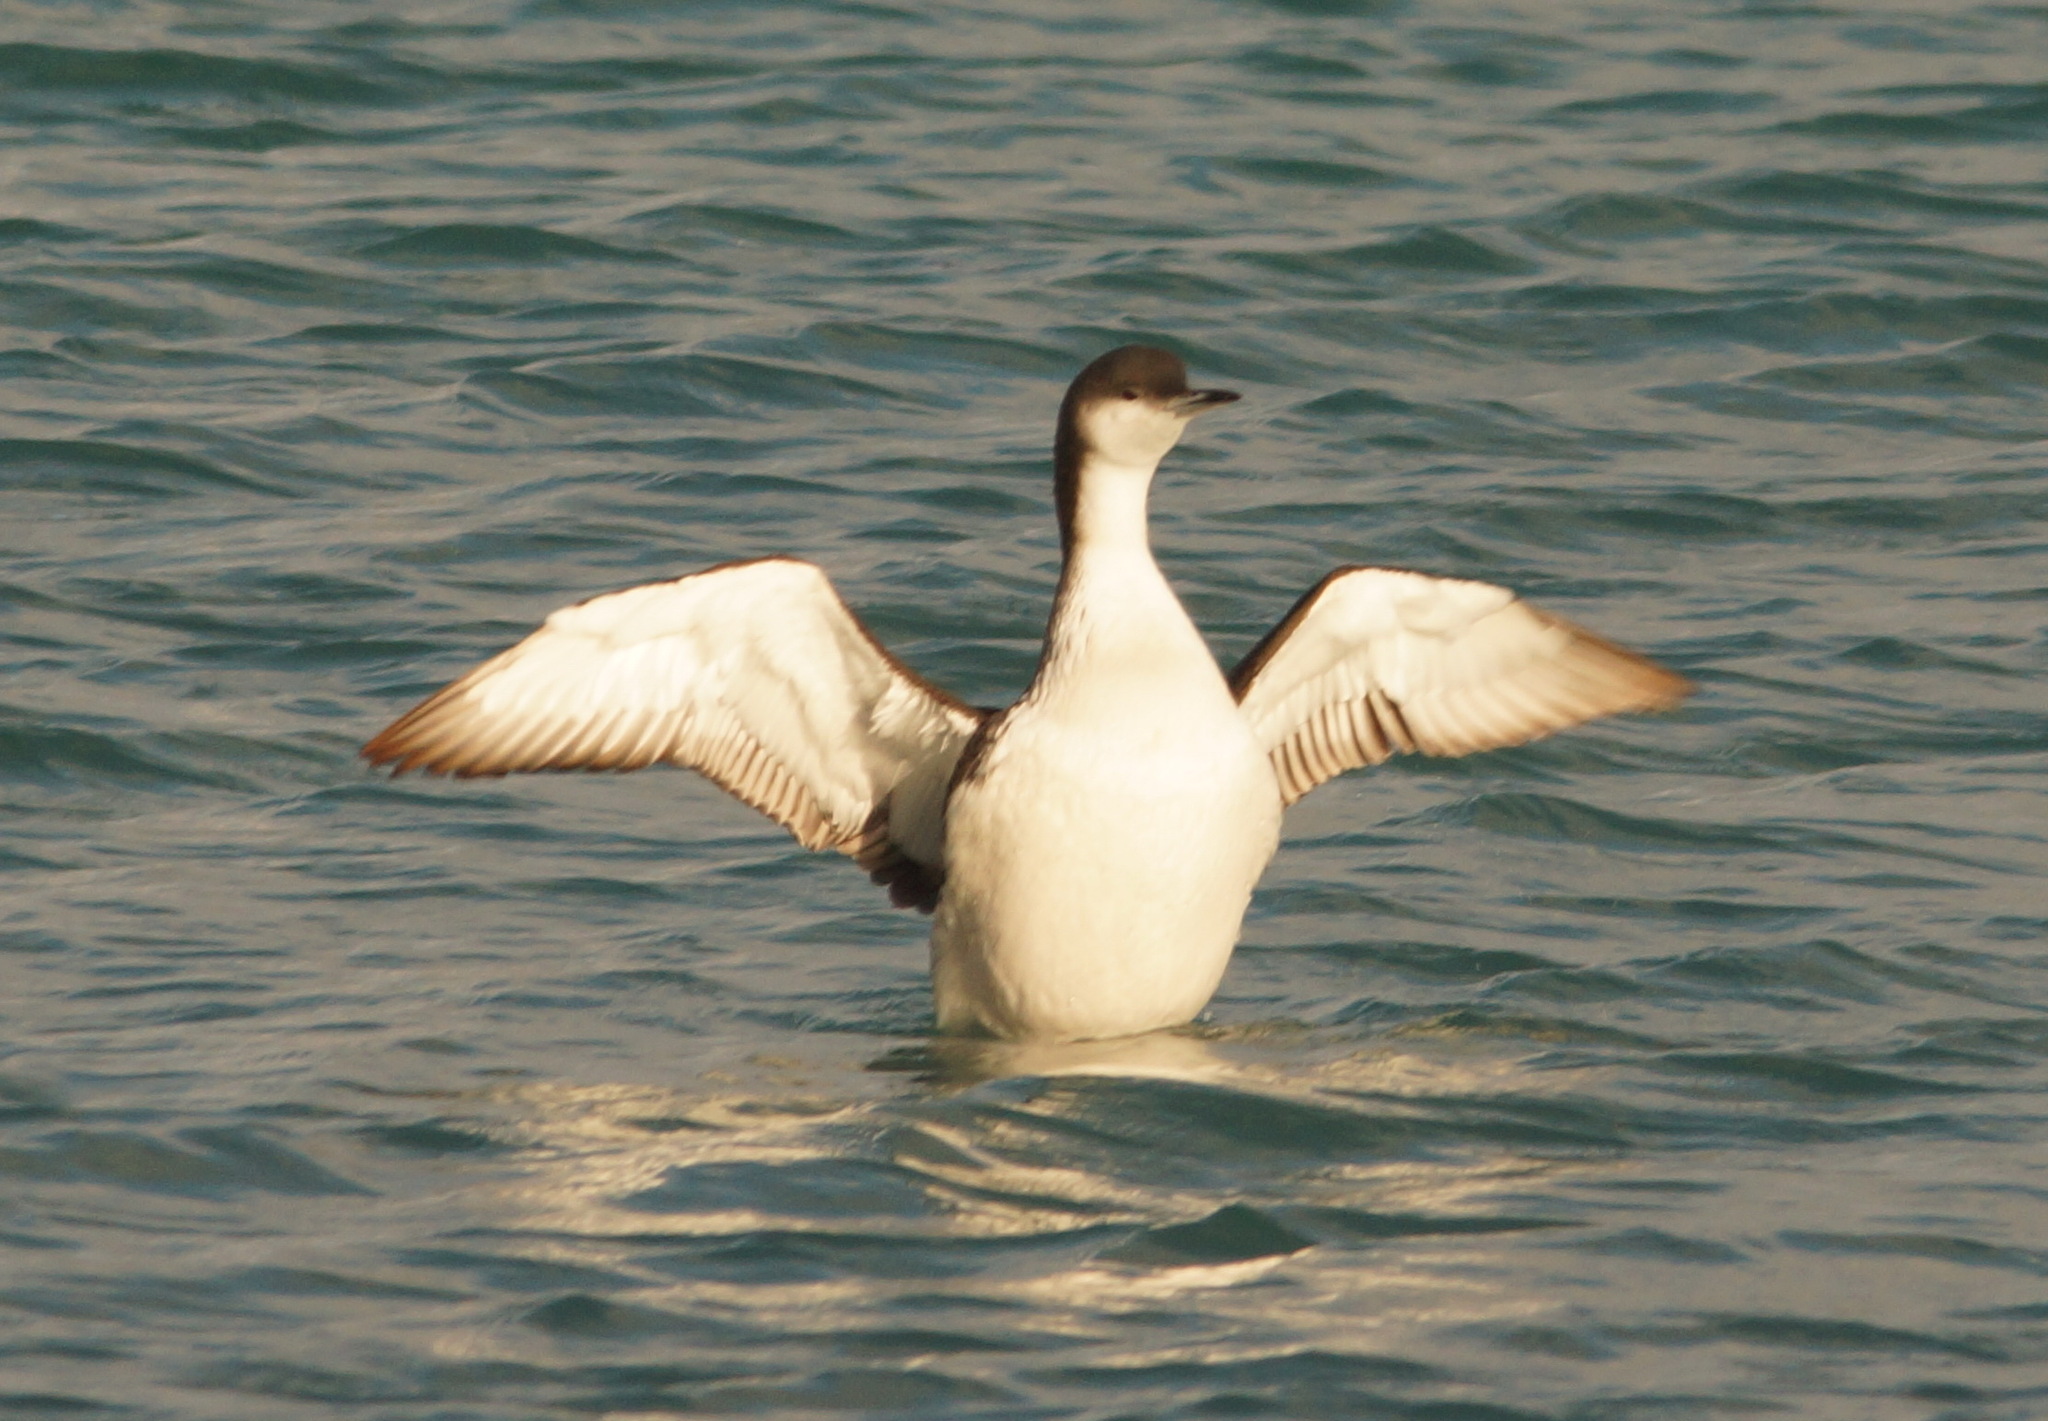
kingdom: Animalia
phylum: Chordata
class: Aves
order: Gaviiformes
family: Gaviidae
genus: Gavia
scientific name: Gavia arctica
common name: Black-throated loon
